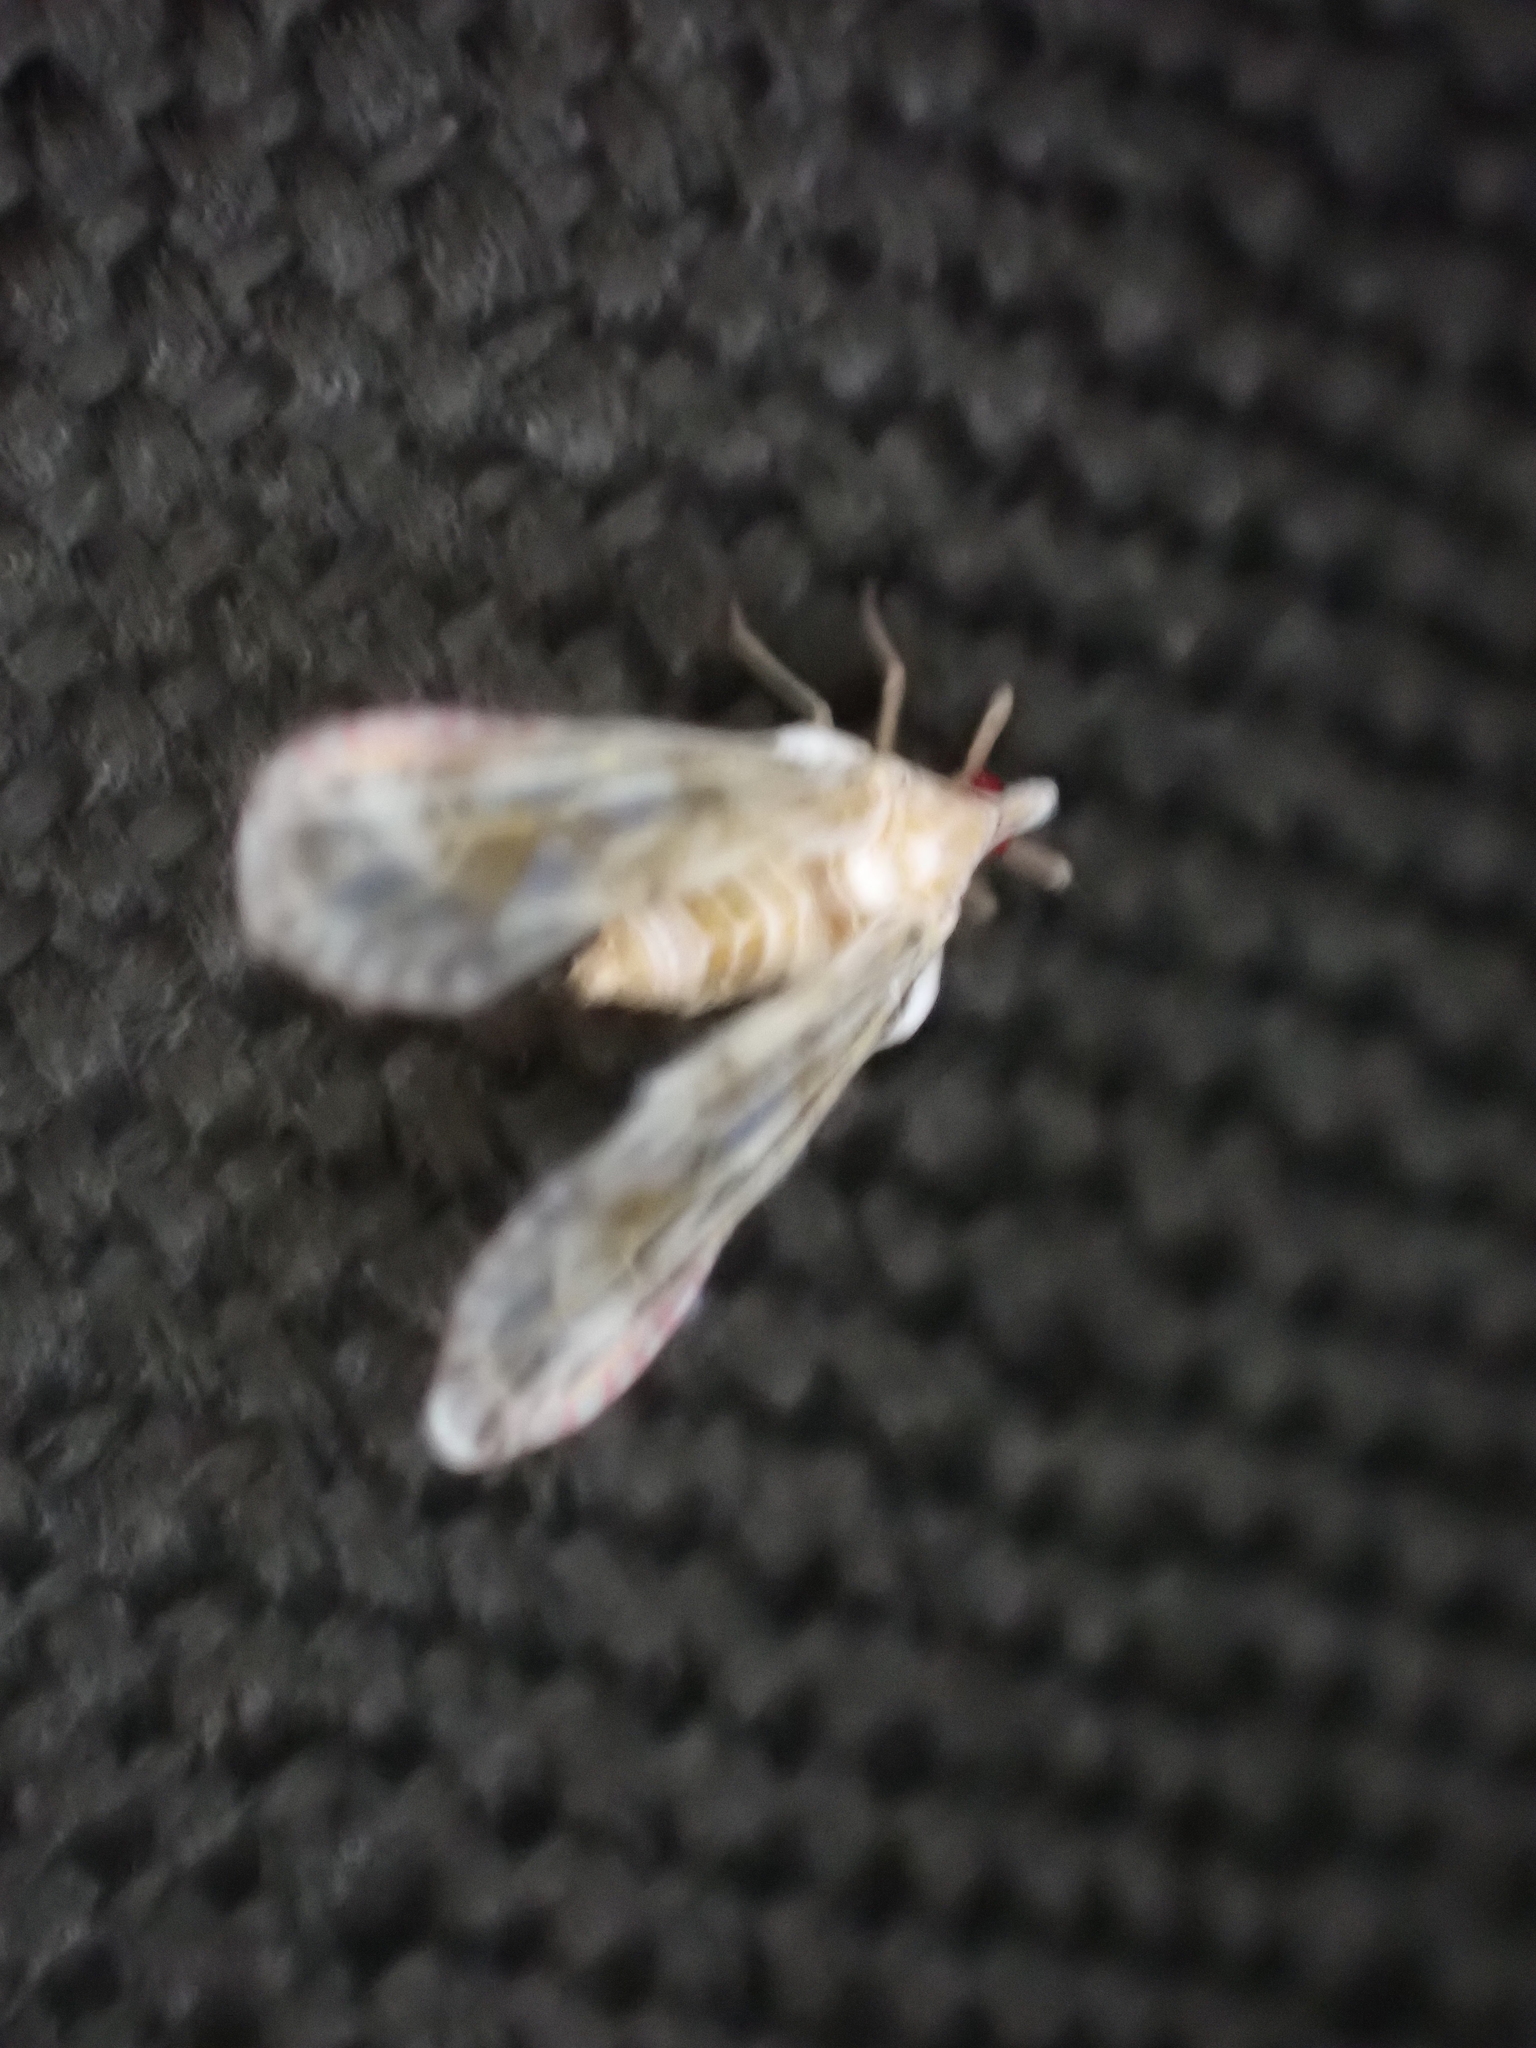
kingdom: Animalia
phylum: Arthropoda
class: Insecta
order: Hemiptera
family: Derbidae
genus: Anotia
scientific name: Anotia kirkaldyi
